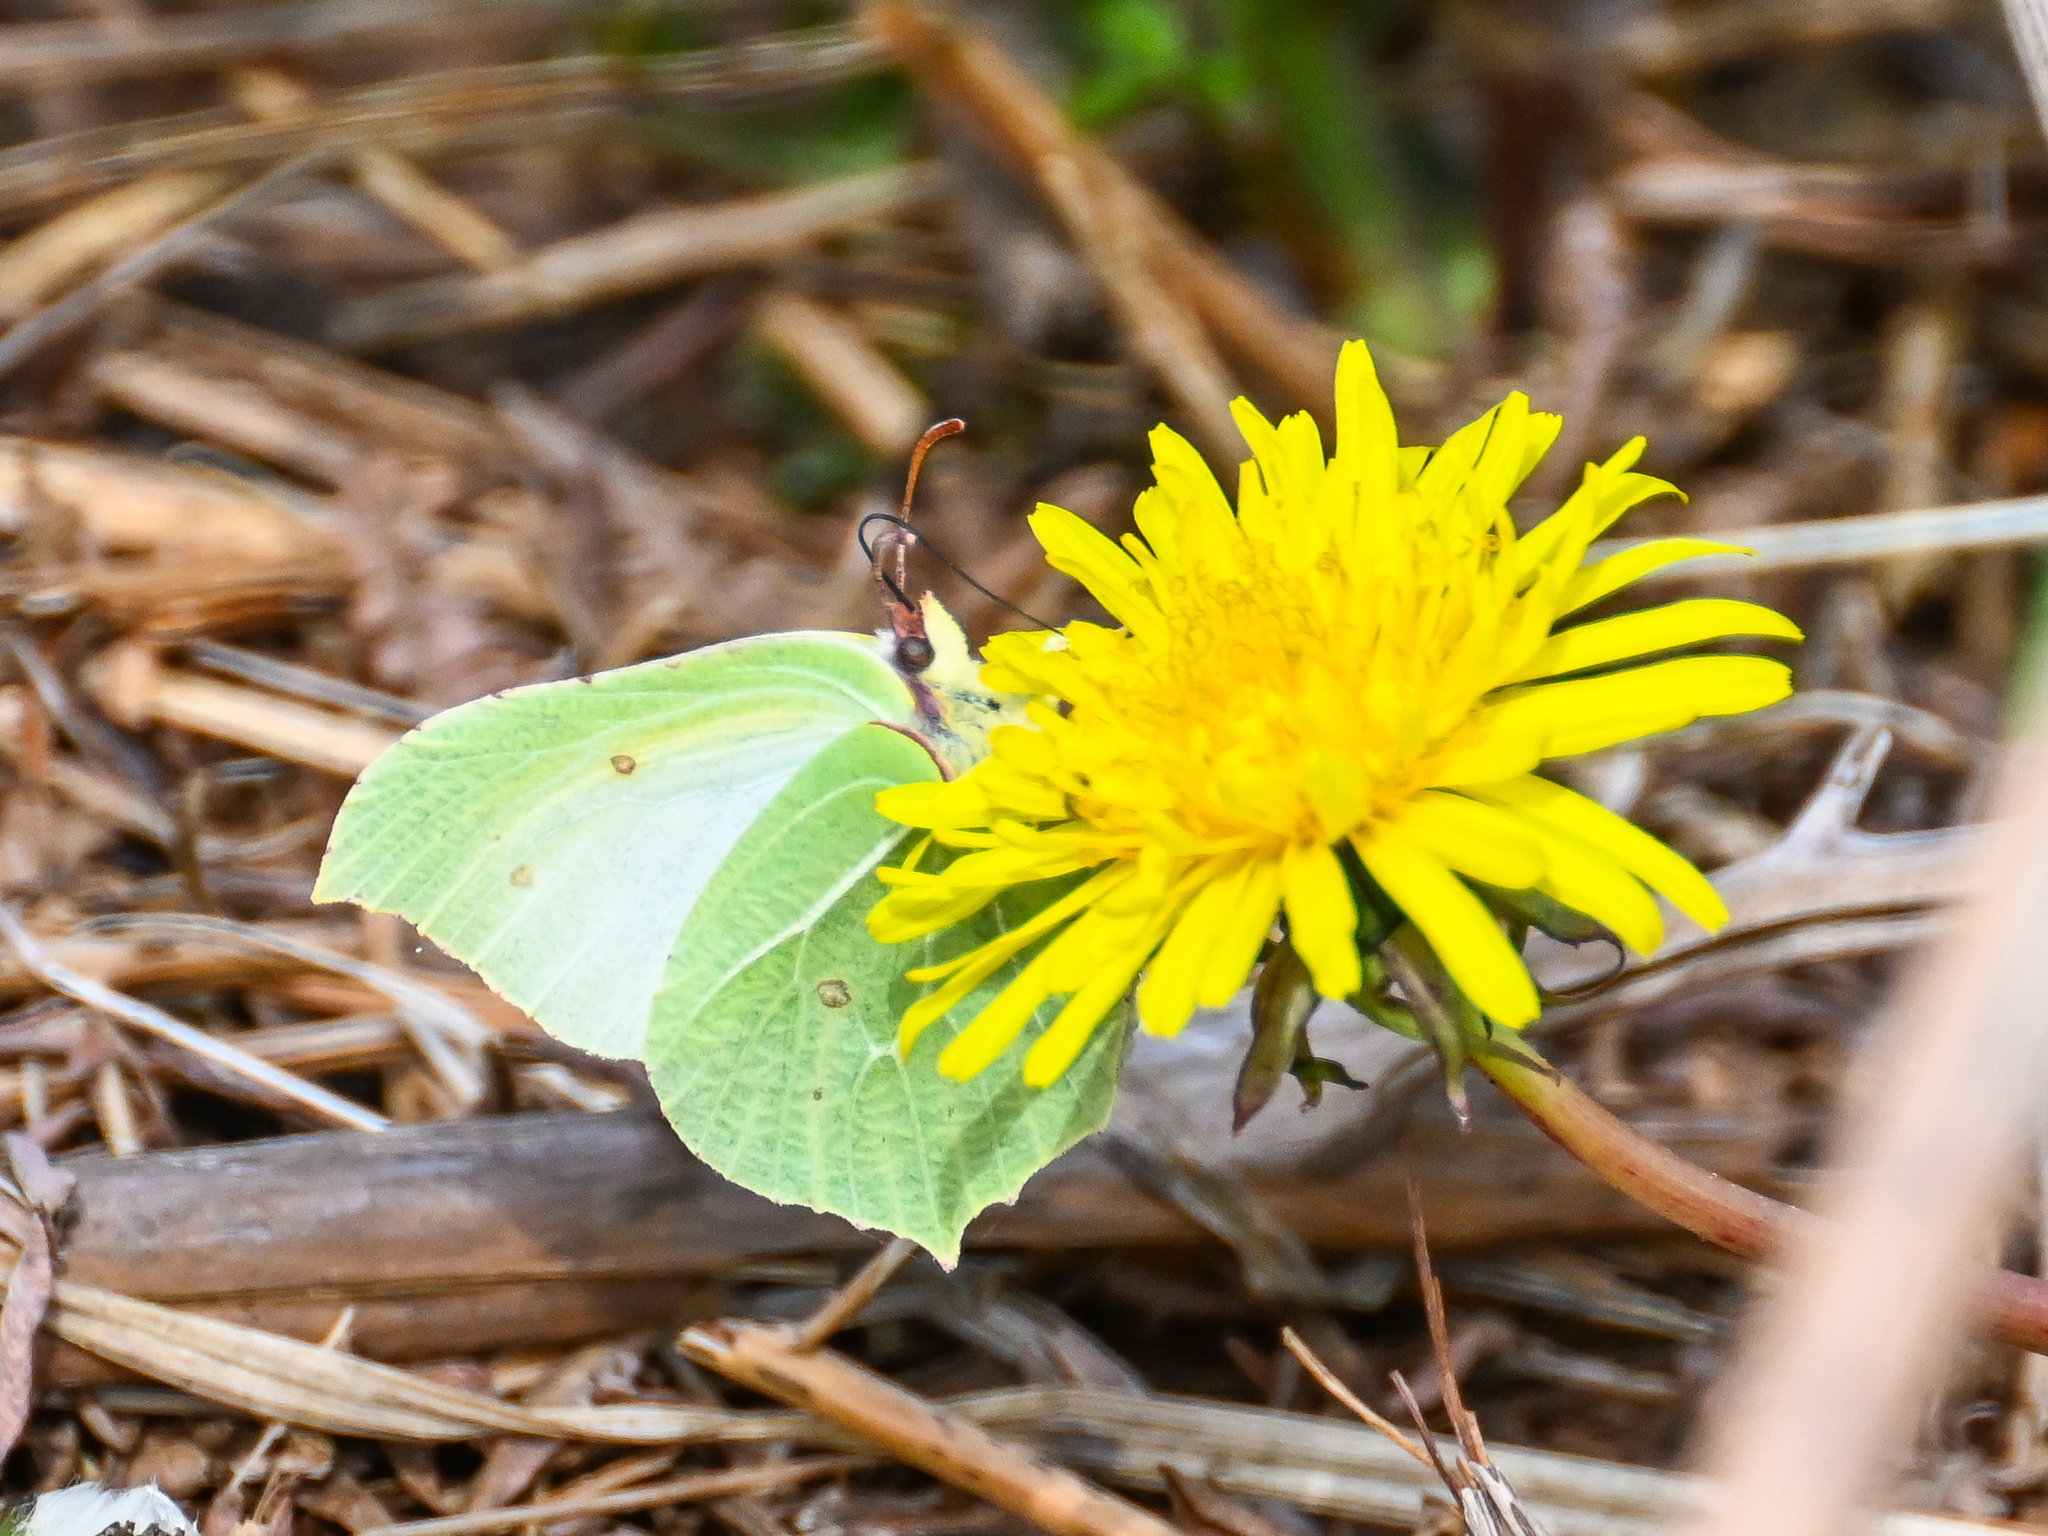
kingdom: Animalia
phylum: Arthropoda
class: Insecta
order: Lepidoptera
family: Pieridae
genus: Gonepteryx
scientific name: Gonepteryx rhamni
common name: Brimstone
